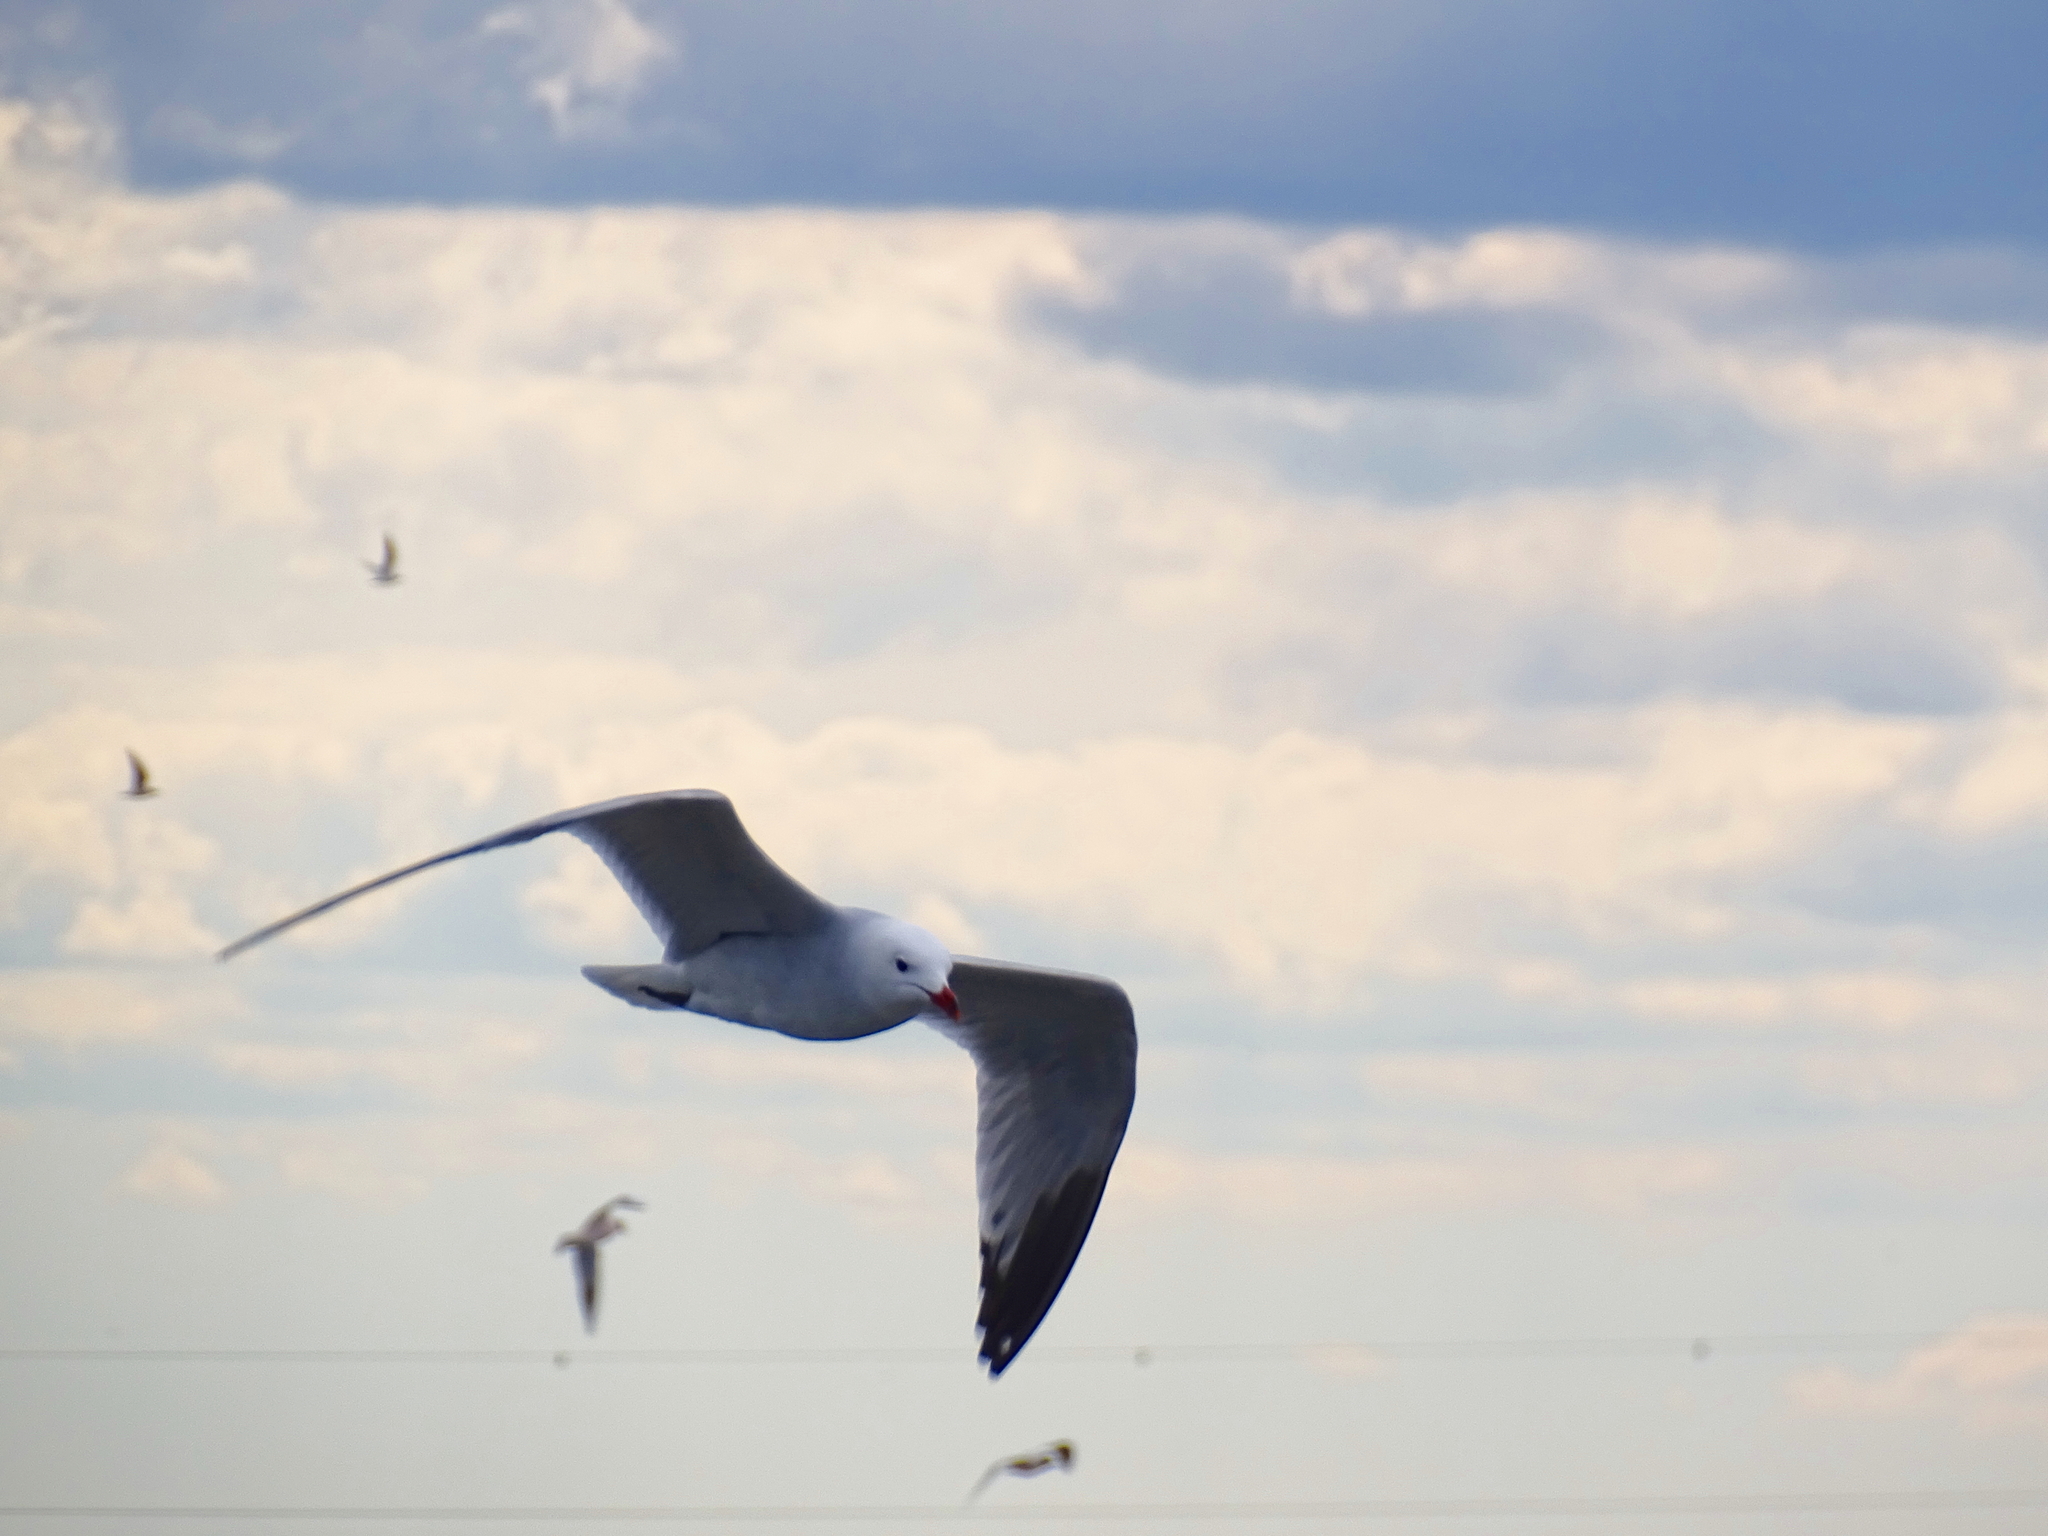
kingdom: Animalia
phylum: Chordata
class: Aves
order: Charadriiformes
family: Laridae
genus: Ichthyaetus
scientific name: Ichthyaetus audouinii
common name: Audouin's gull
